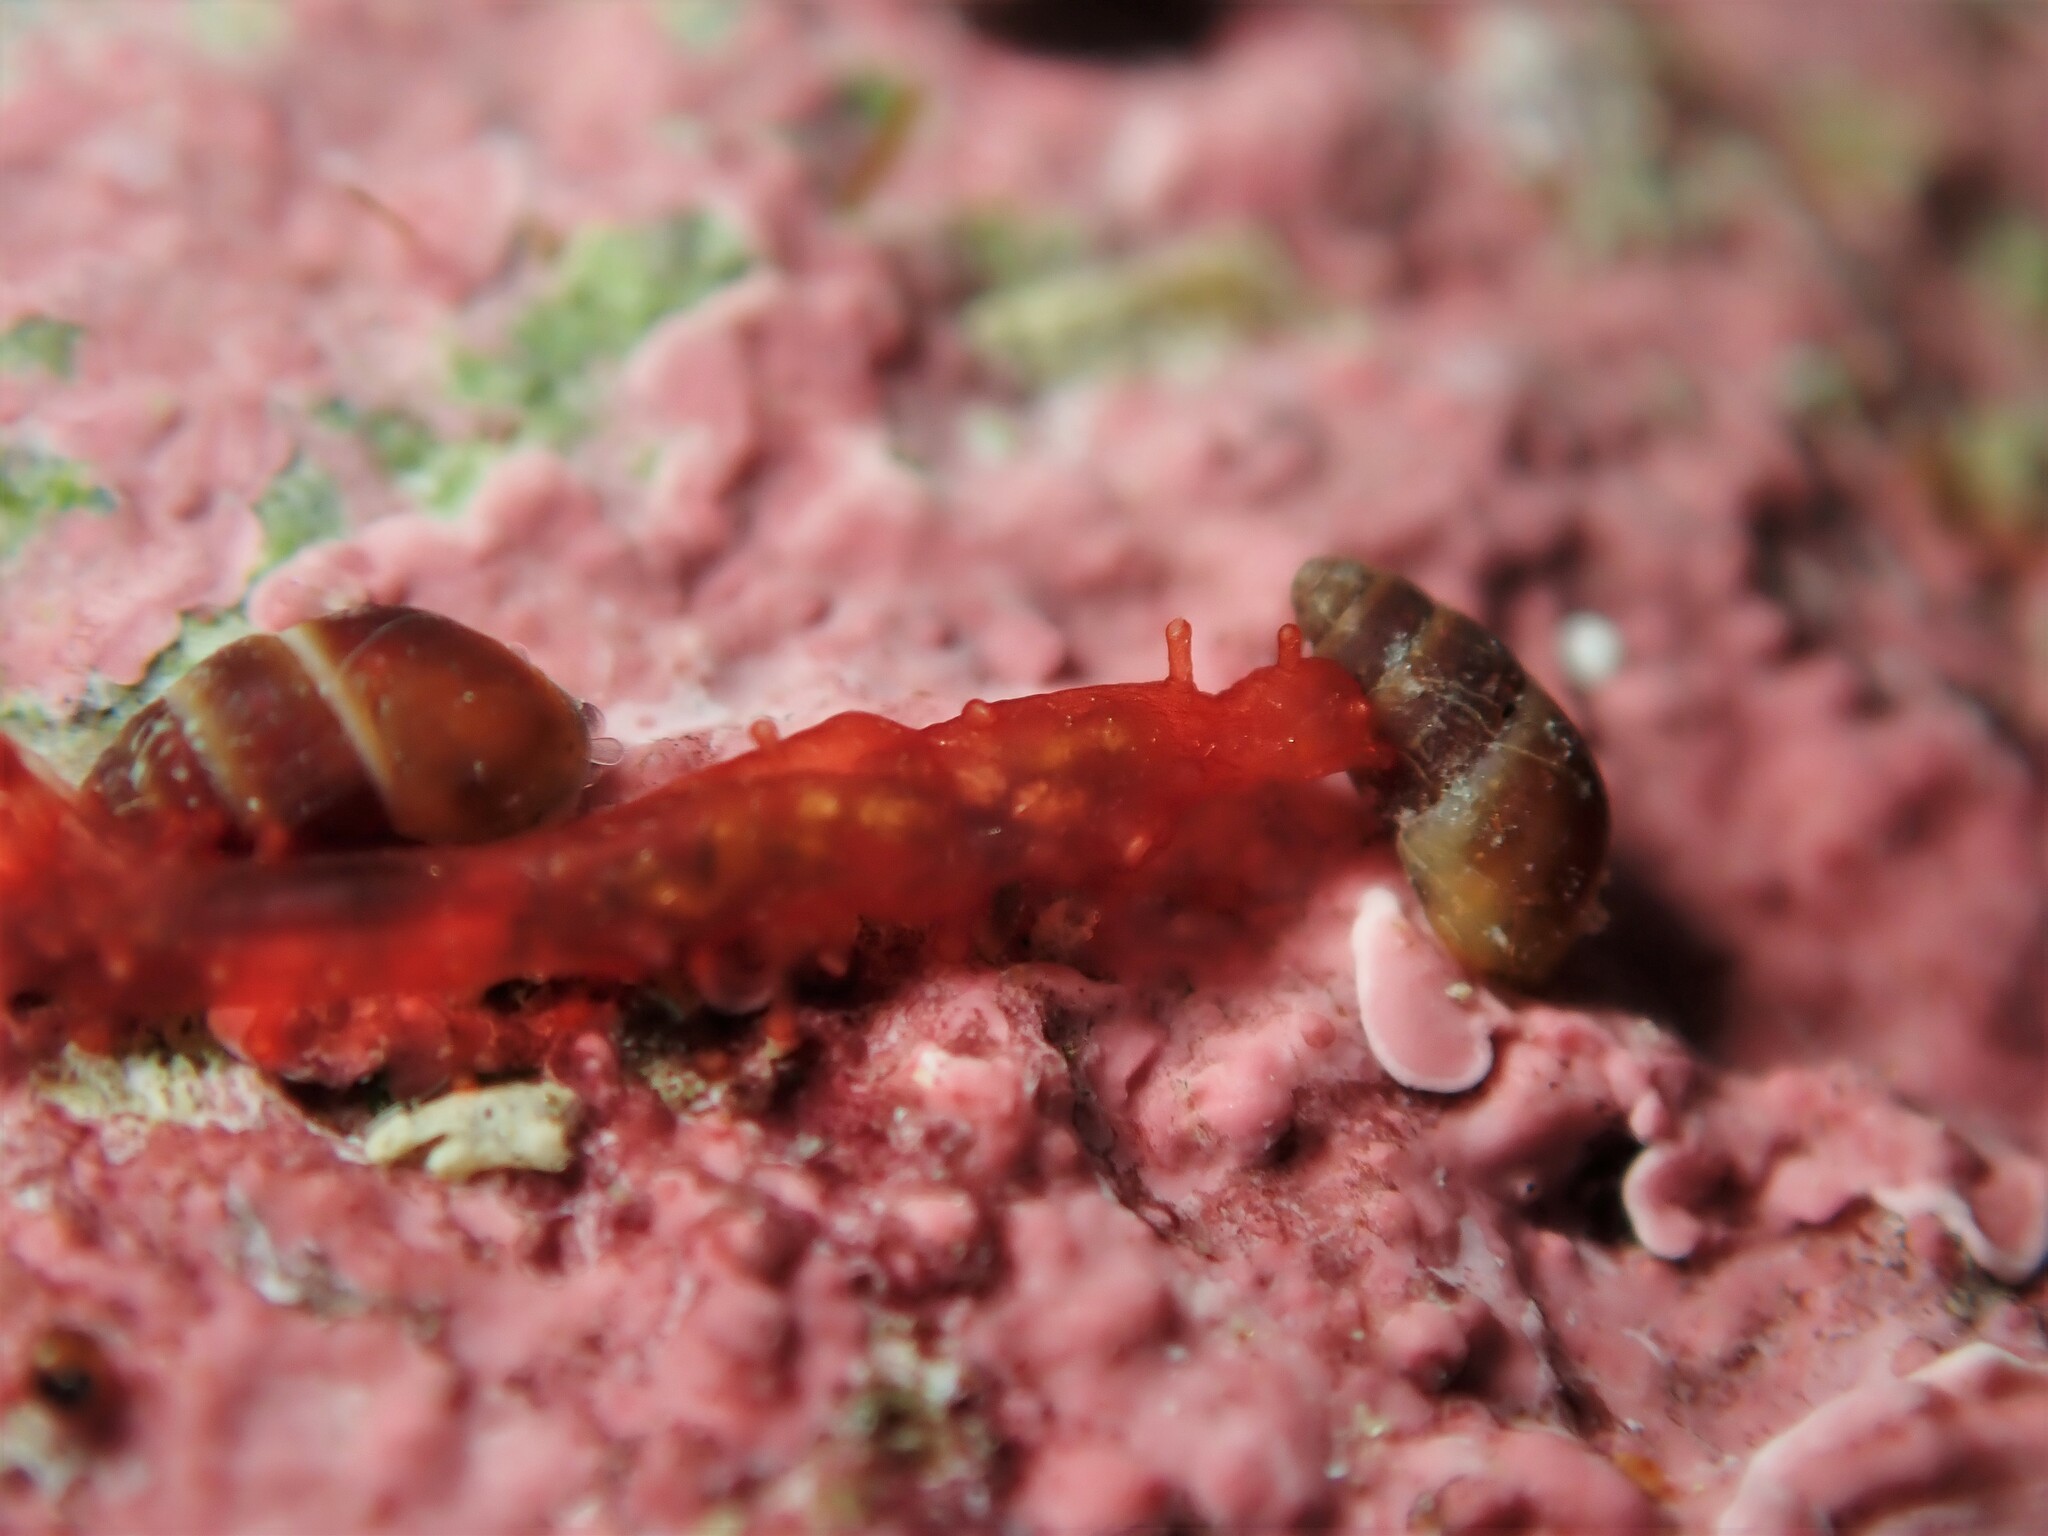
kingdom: Animalia
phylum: Echinodermata
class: Holothuroidea
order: Dendrochirotida
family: Cucumariidae
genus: Squamocnus
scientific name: Squamocnus brevidentis
